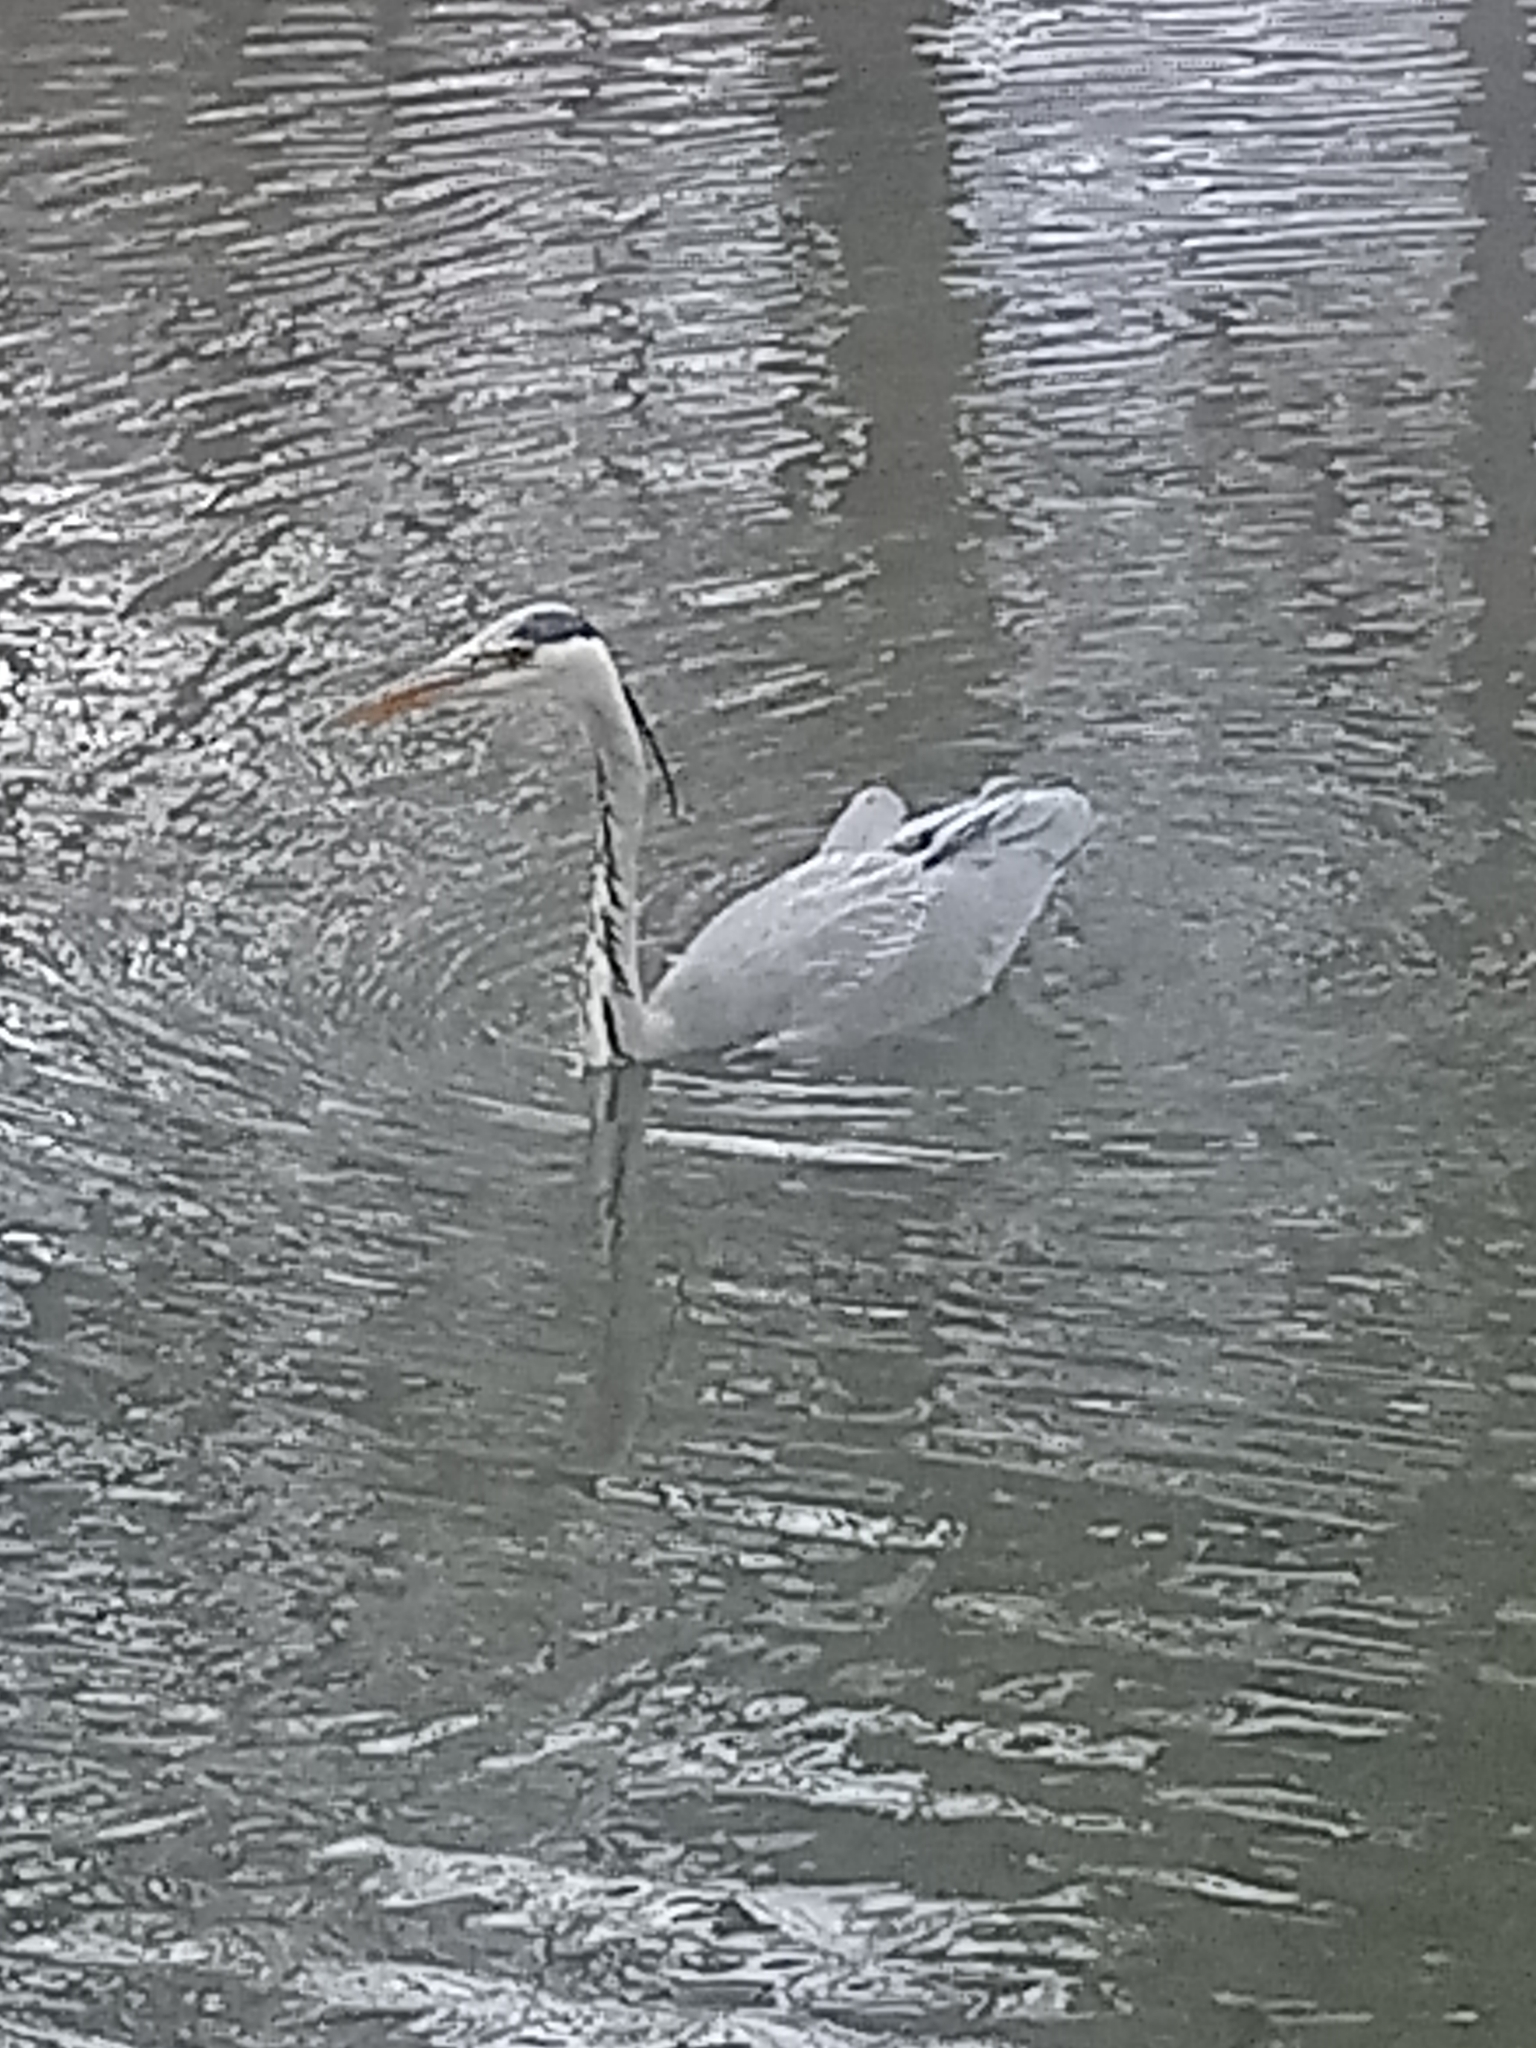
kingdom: Animalia
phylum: Chordata
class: Aves
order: Pelecaniformes
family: Ardeidae
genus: Ardea
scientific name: Ardea cinerea
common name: Grey heron
